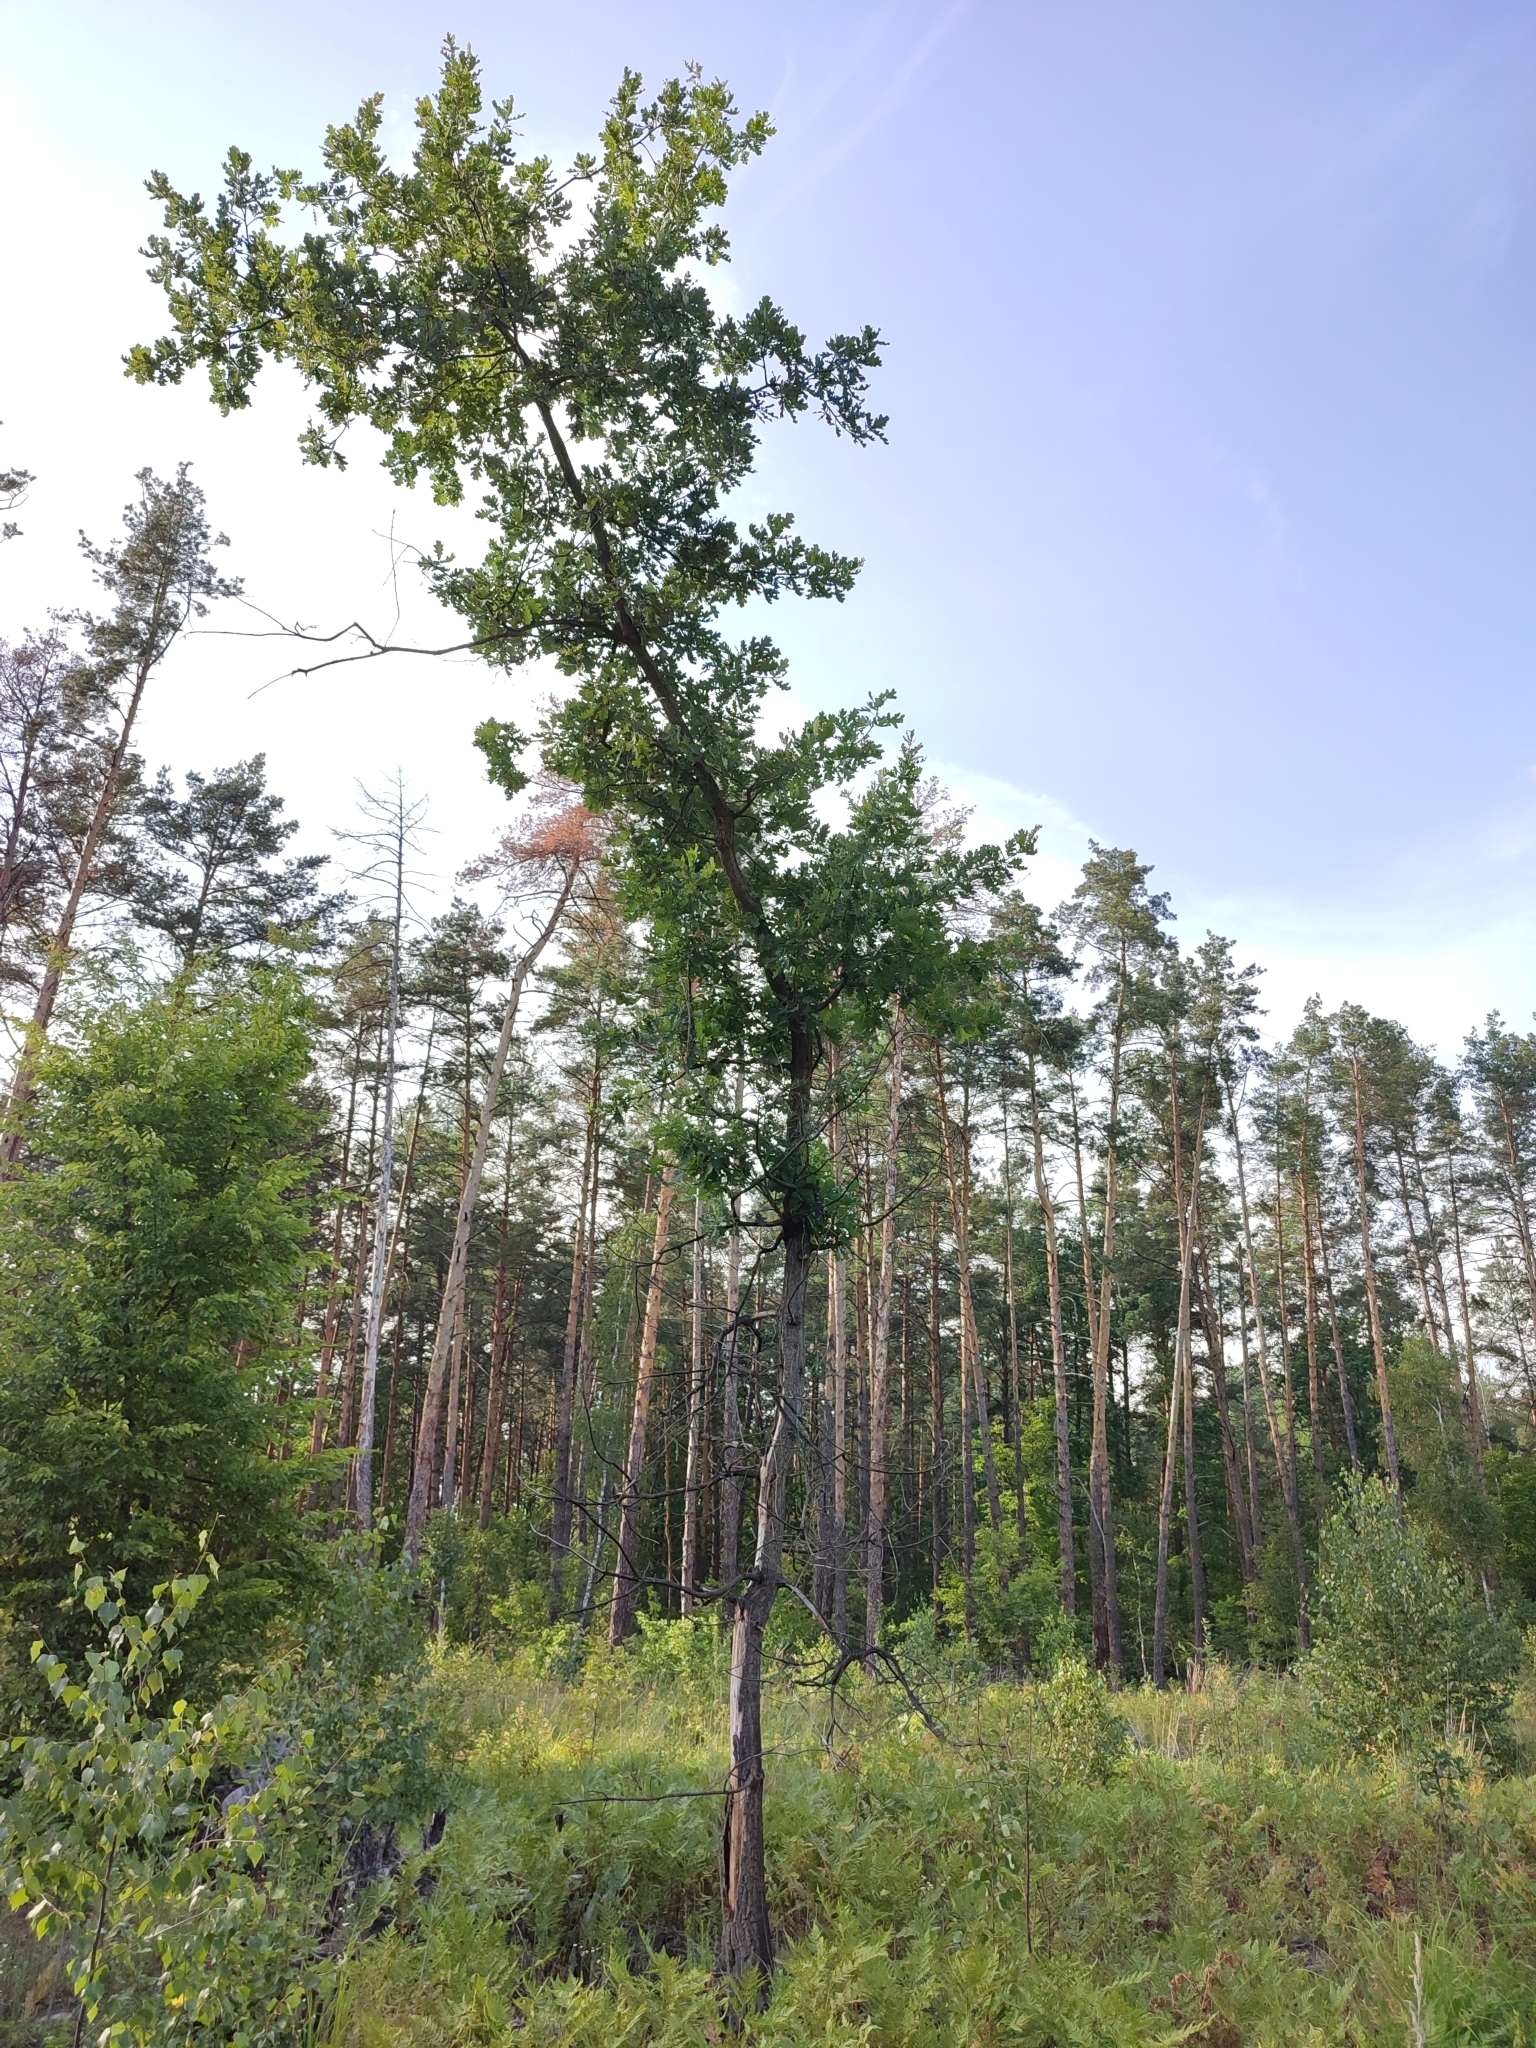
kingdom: Plantae
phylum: Tracheophyta
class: Magnoliopsida
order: Fagales
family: Fagaceae
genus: Quercus
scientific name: Quercus robur
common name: Pedunculate oak
